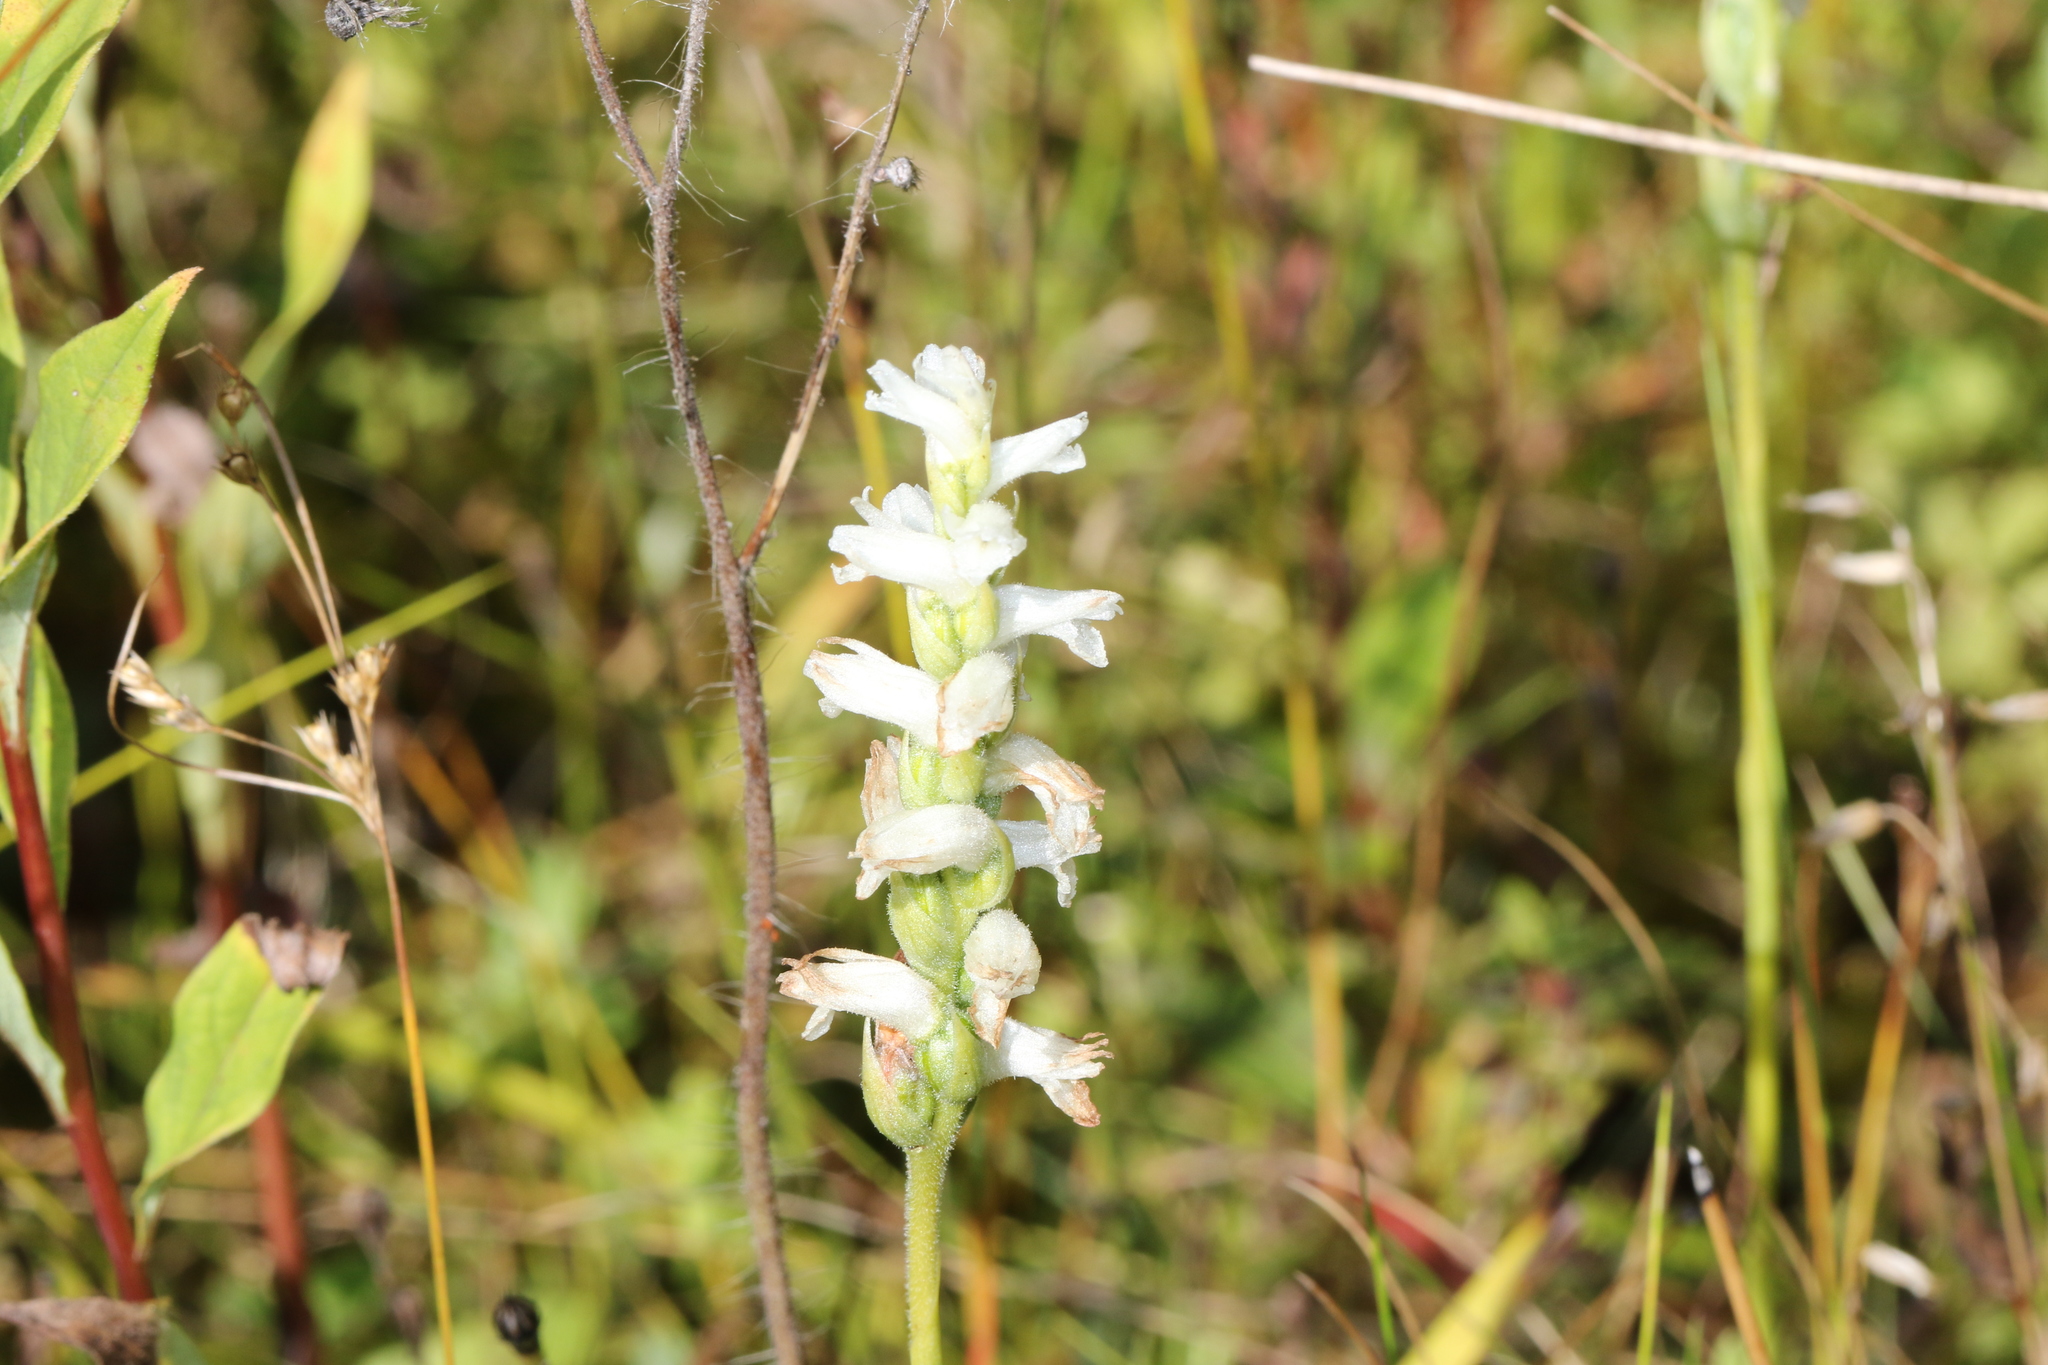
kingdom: Plantae
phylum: Tracheophyta
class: Liliopsida
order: Asparagales
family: Orchidaceae
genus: Spiranthes
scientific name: Spiranthes incurva
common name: Sphinx ladies'-tresses
